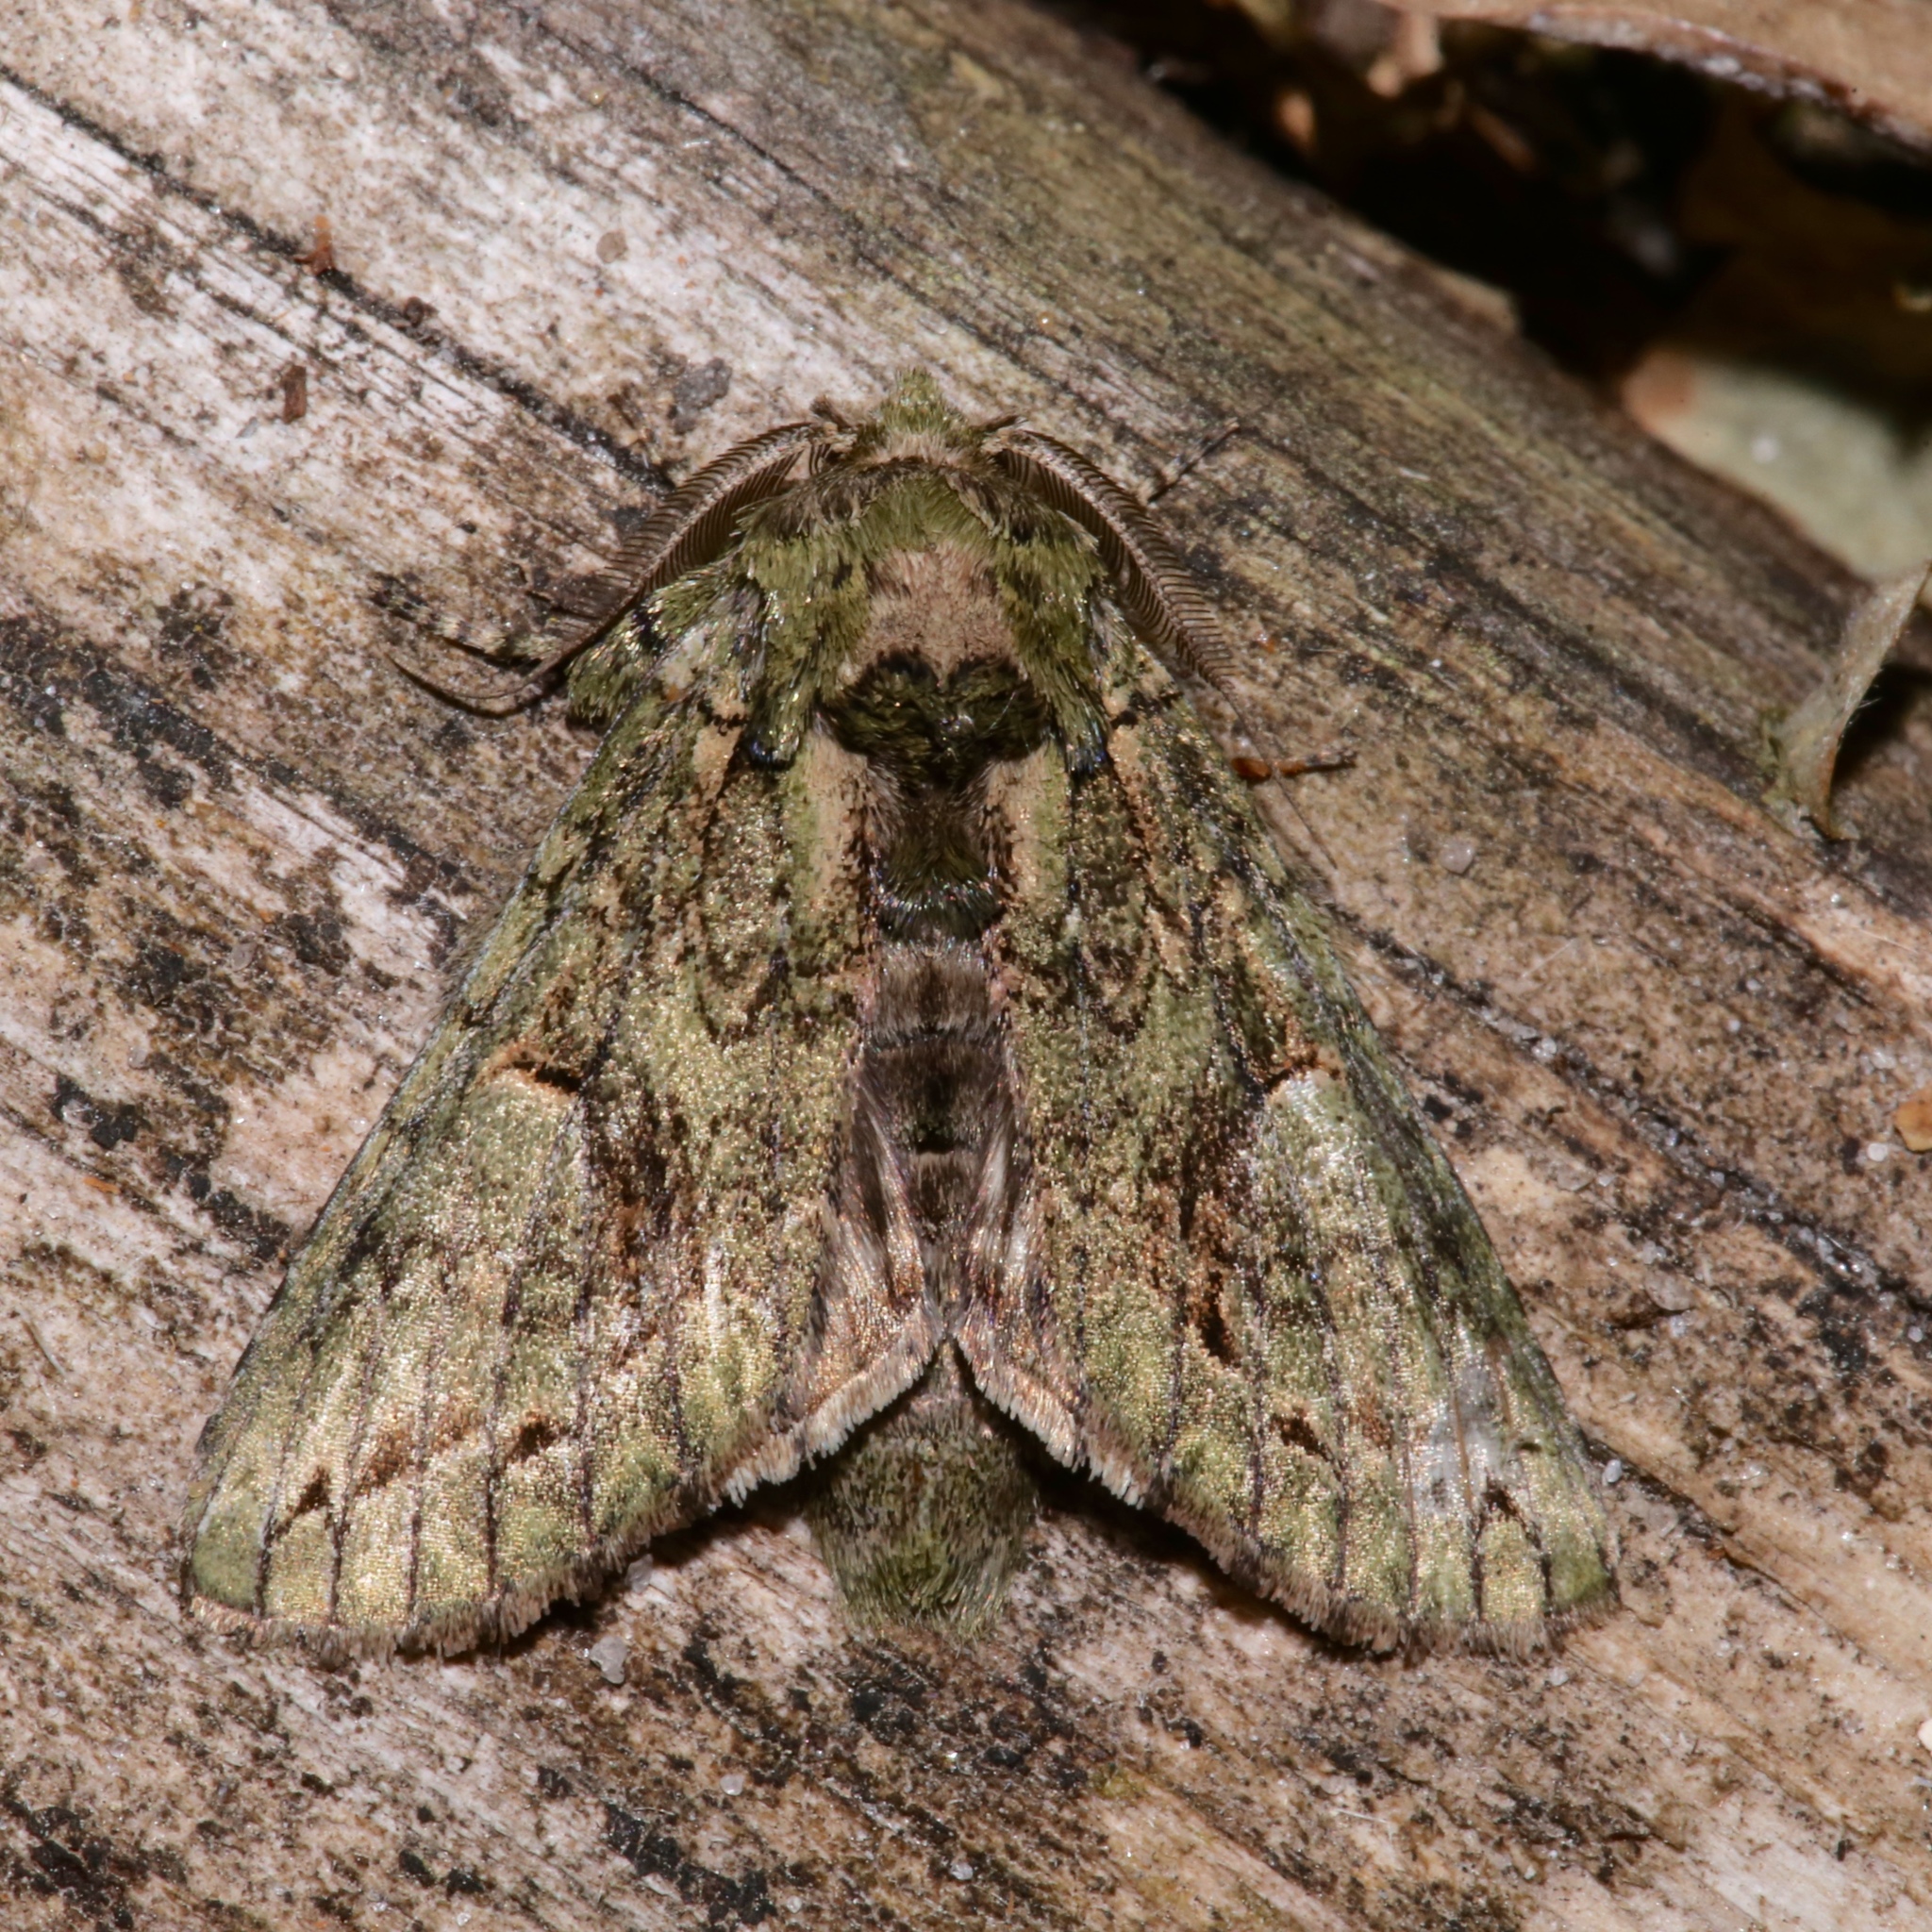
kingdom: Animalia
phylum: Arthropoda
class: Insecta
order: Lepidoptera
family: Notodontidae
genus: Heterocampa
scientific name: Heterocampa umbrata
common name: White-blotched heterocampa
